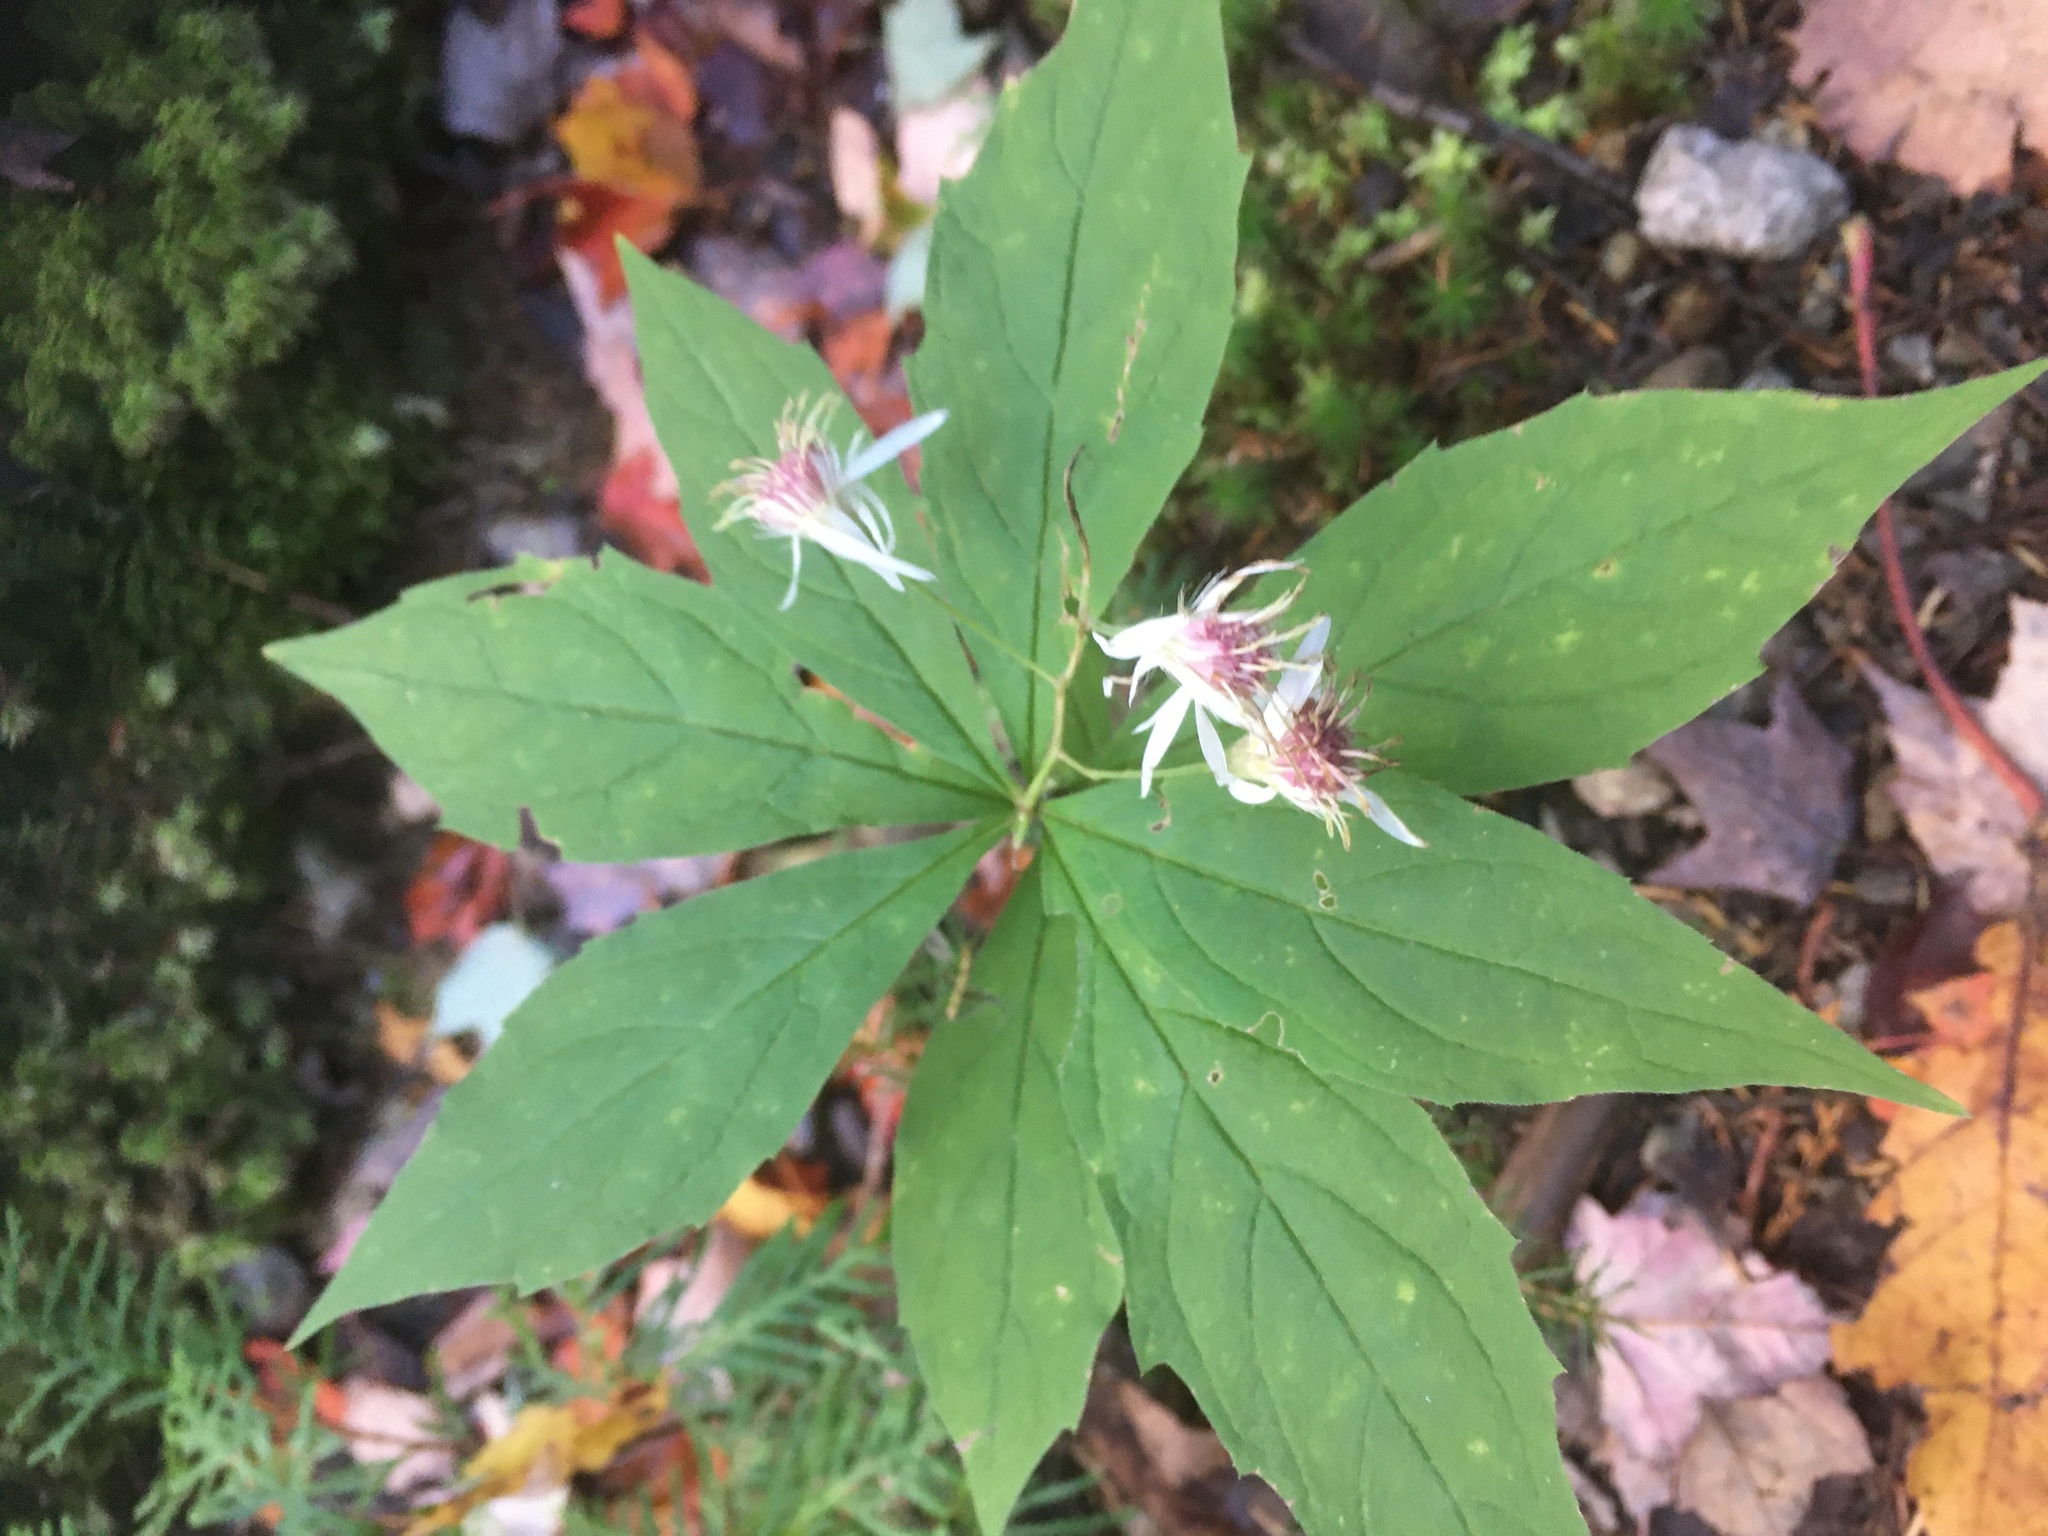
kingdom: Plantae
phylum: Tracheophyta
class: Magnoliopsida
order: Asterales
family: Asteraceae
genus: Oclemena
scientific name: Oclemena acuminata
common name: Mountain aster
